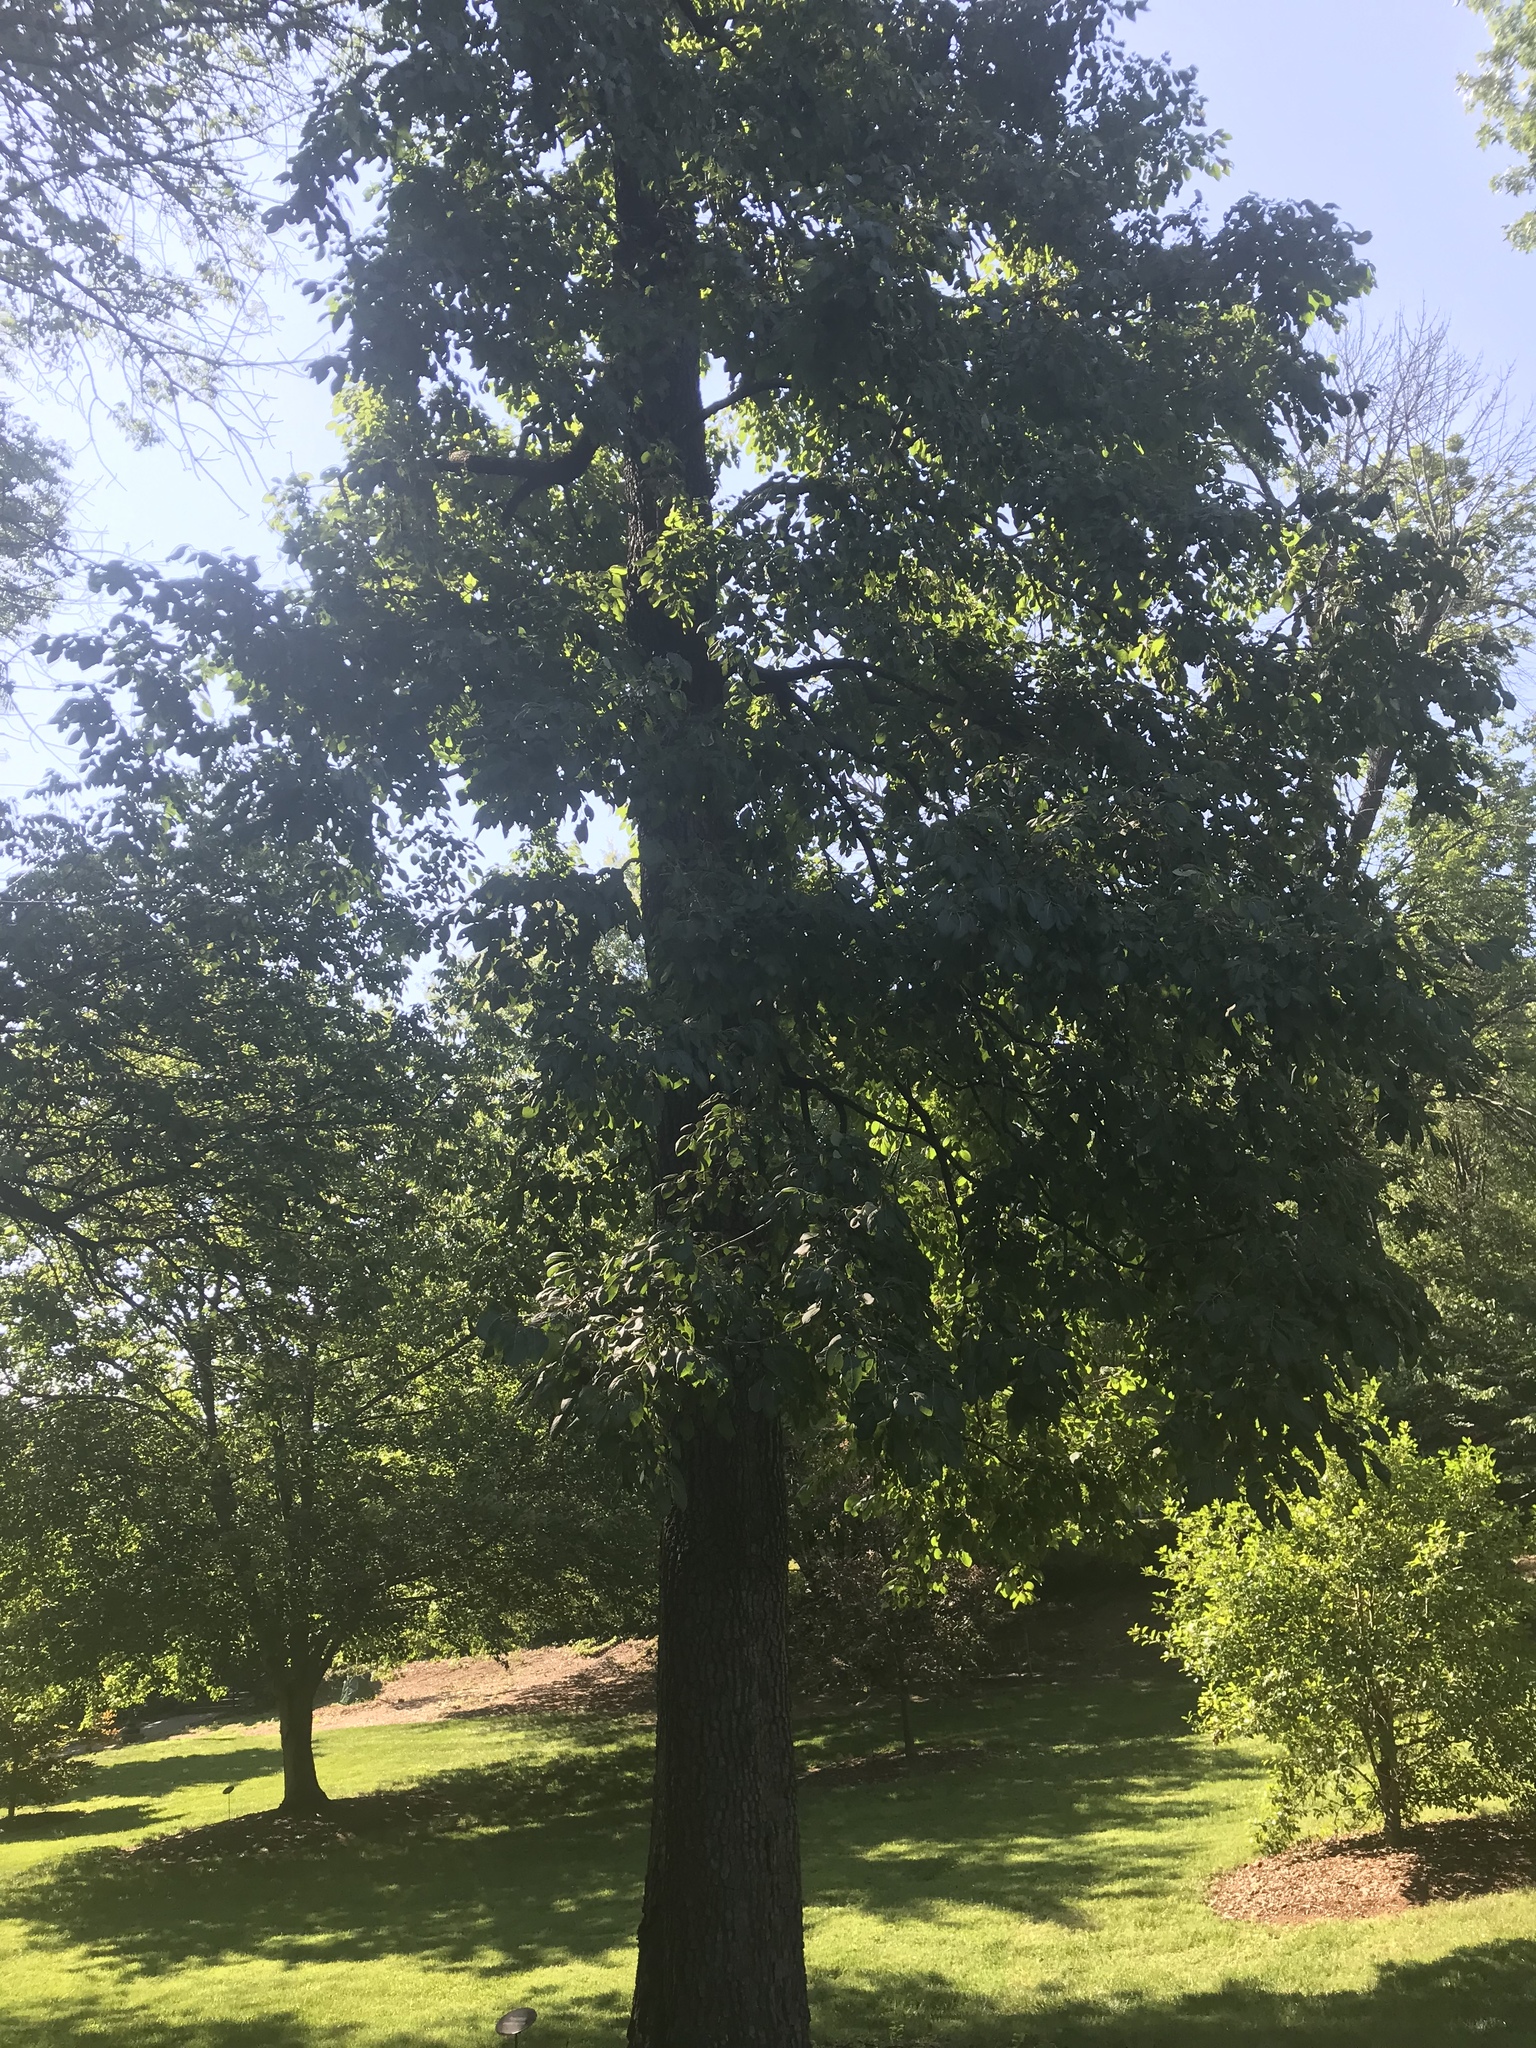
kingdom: Plantae
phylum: Tracheophyta
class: Magnoliopsida
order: Ericales
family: Ebenaceae
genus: Diospyros
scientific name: Diospyros virginiana
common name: Persimmon
